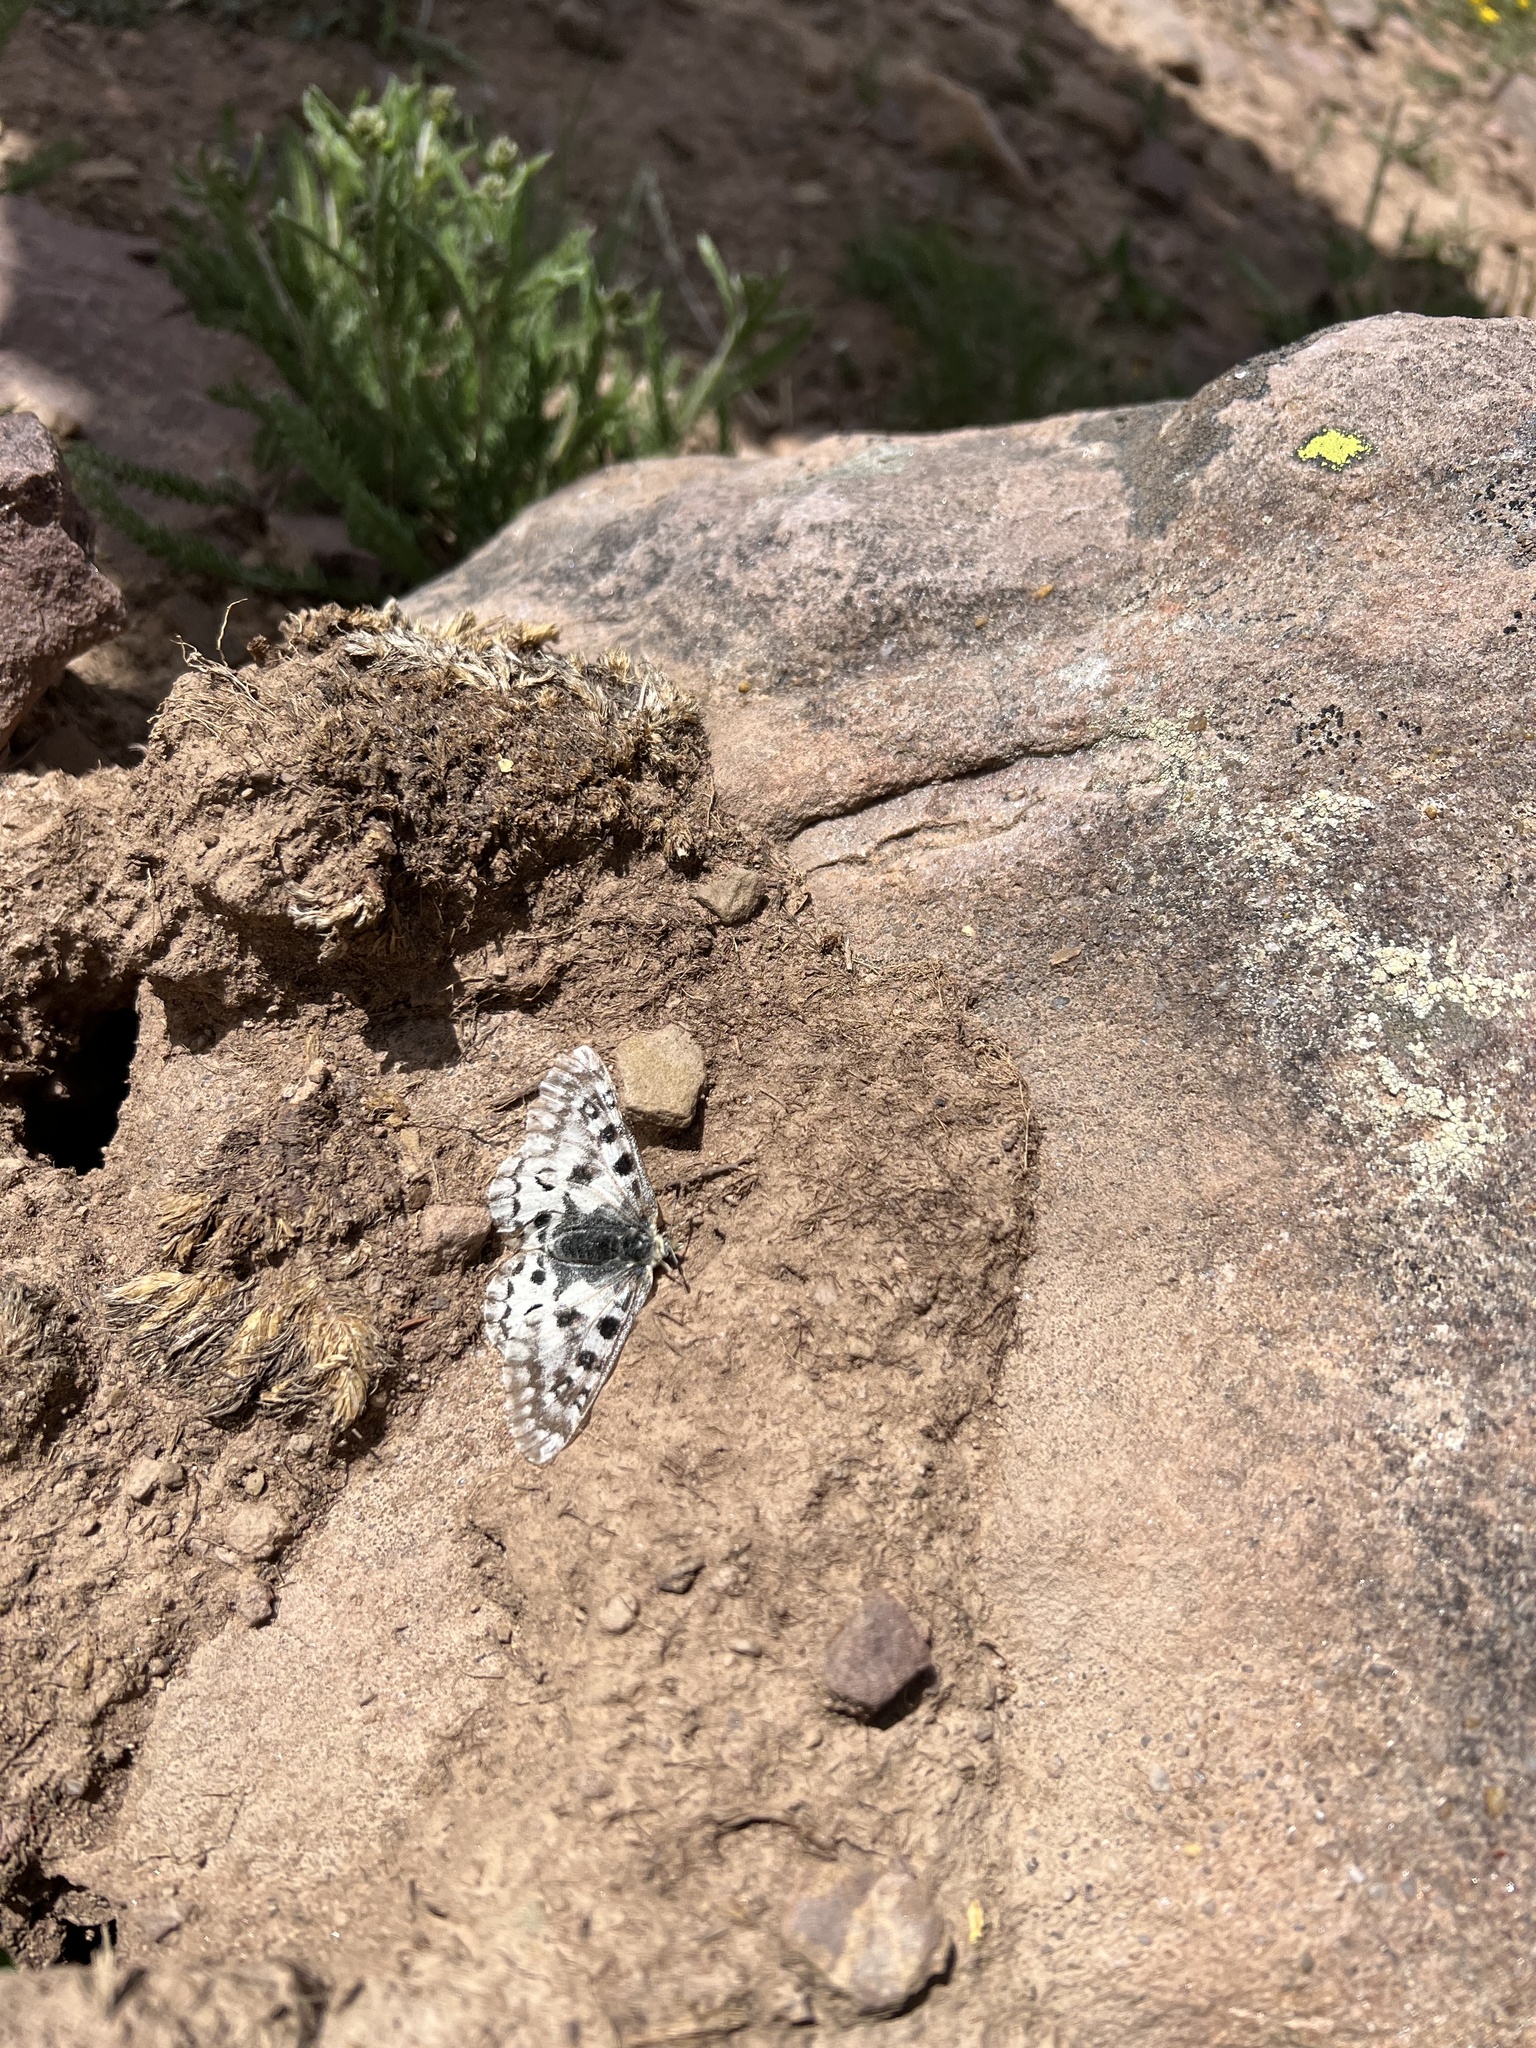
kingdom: Animalia
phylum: Arthropoda
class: Insecta
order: Lepidoptera
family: Papilionidae
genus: Parnassius
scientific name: Parnassius smintheus
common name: Mountain parnassian
